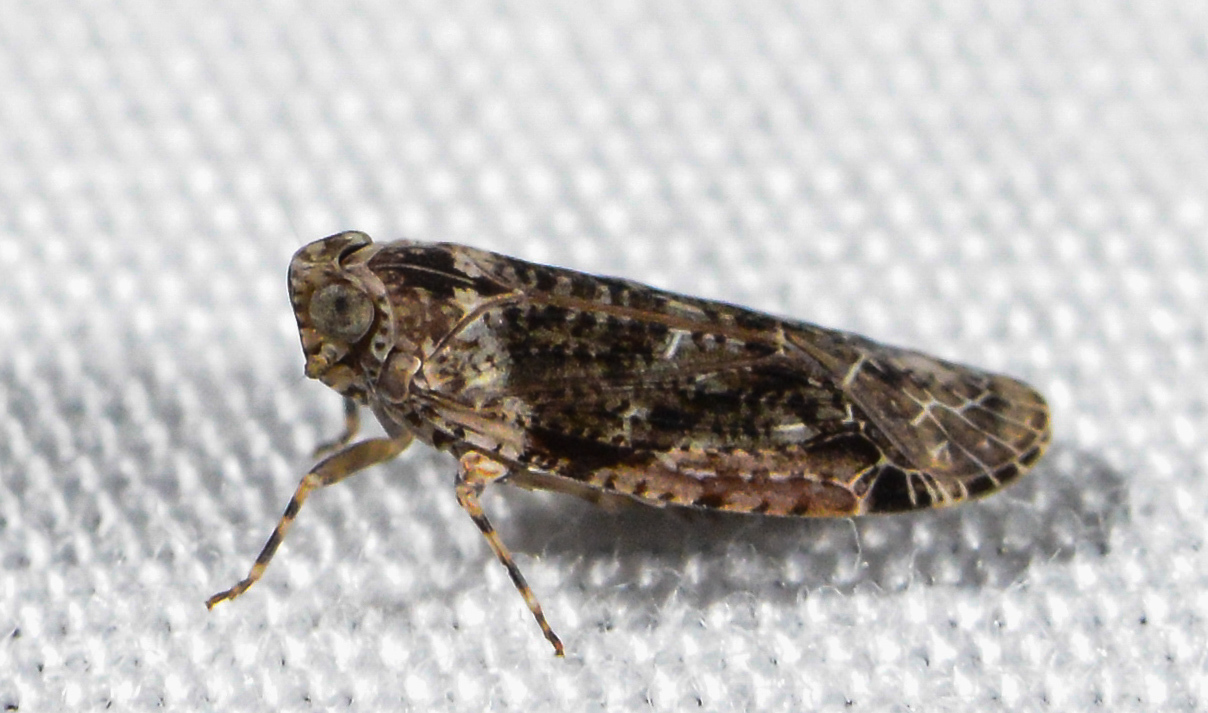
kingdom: Animalia
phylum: Arthropoda
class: Insecta
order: Hemiptera
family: Achilidae
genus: Catonia
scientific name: Catonia nava
